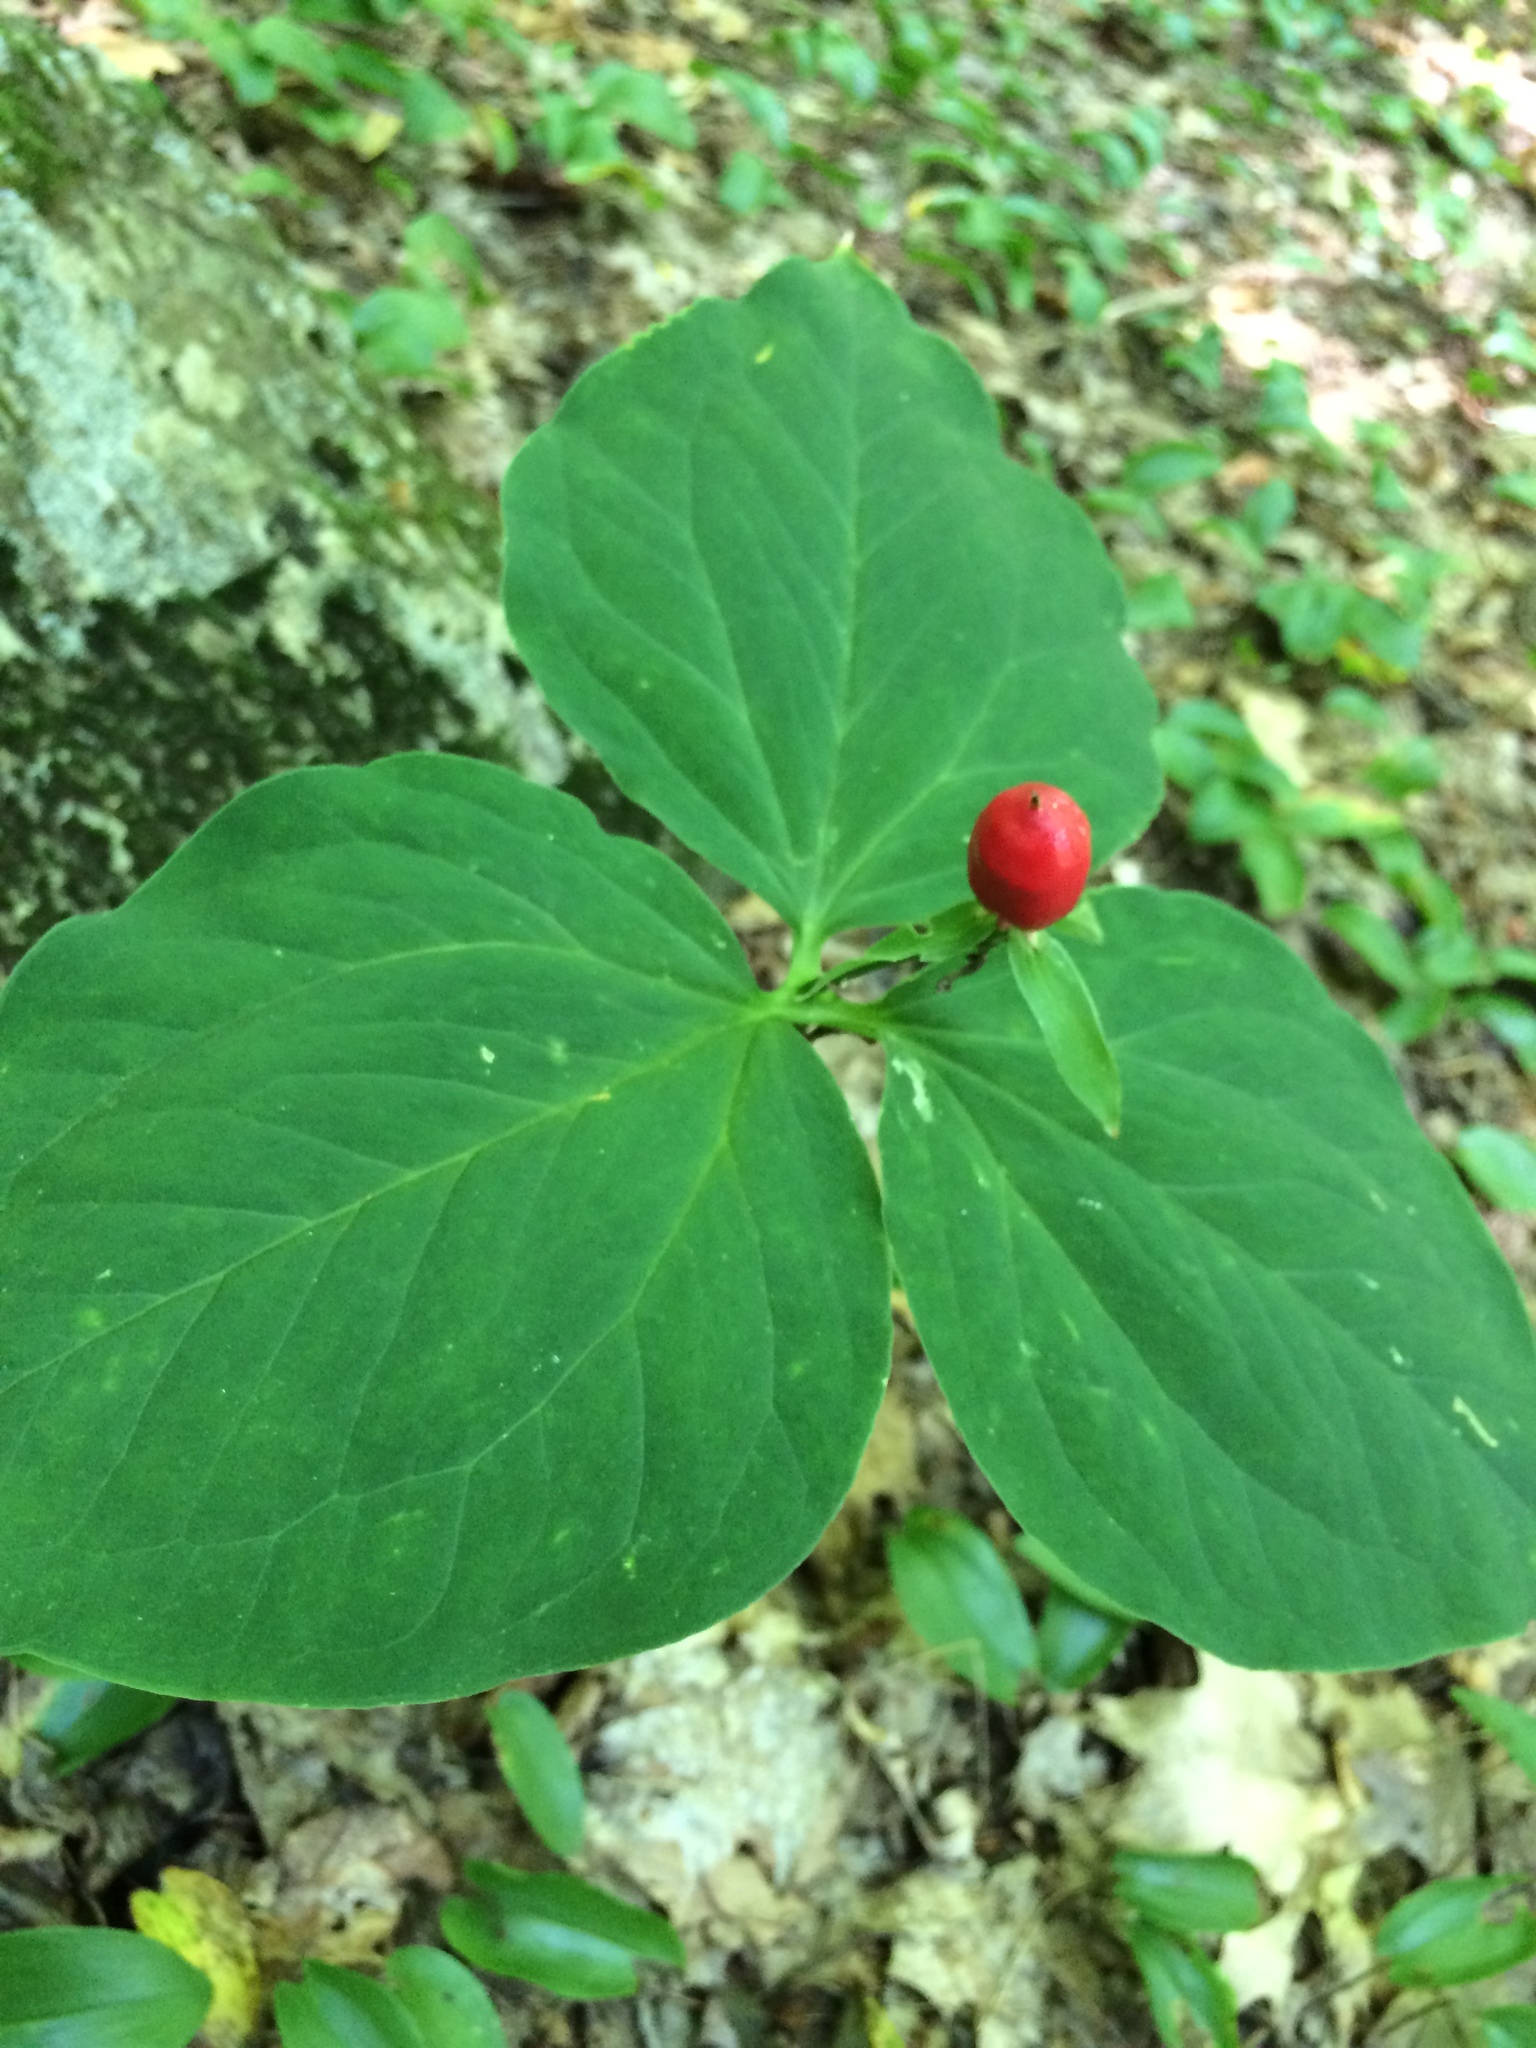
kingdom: Plantae
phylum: Tracheophyta
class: Liliopsida
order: Liliales
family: Melanthiaceae
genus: Trillium
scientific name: Trillium undulatum
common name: Paint trillium
